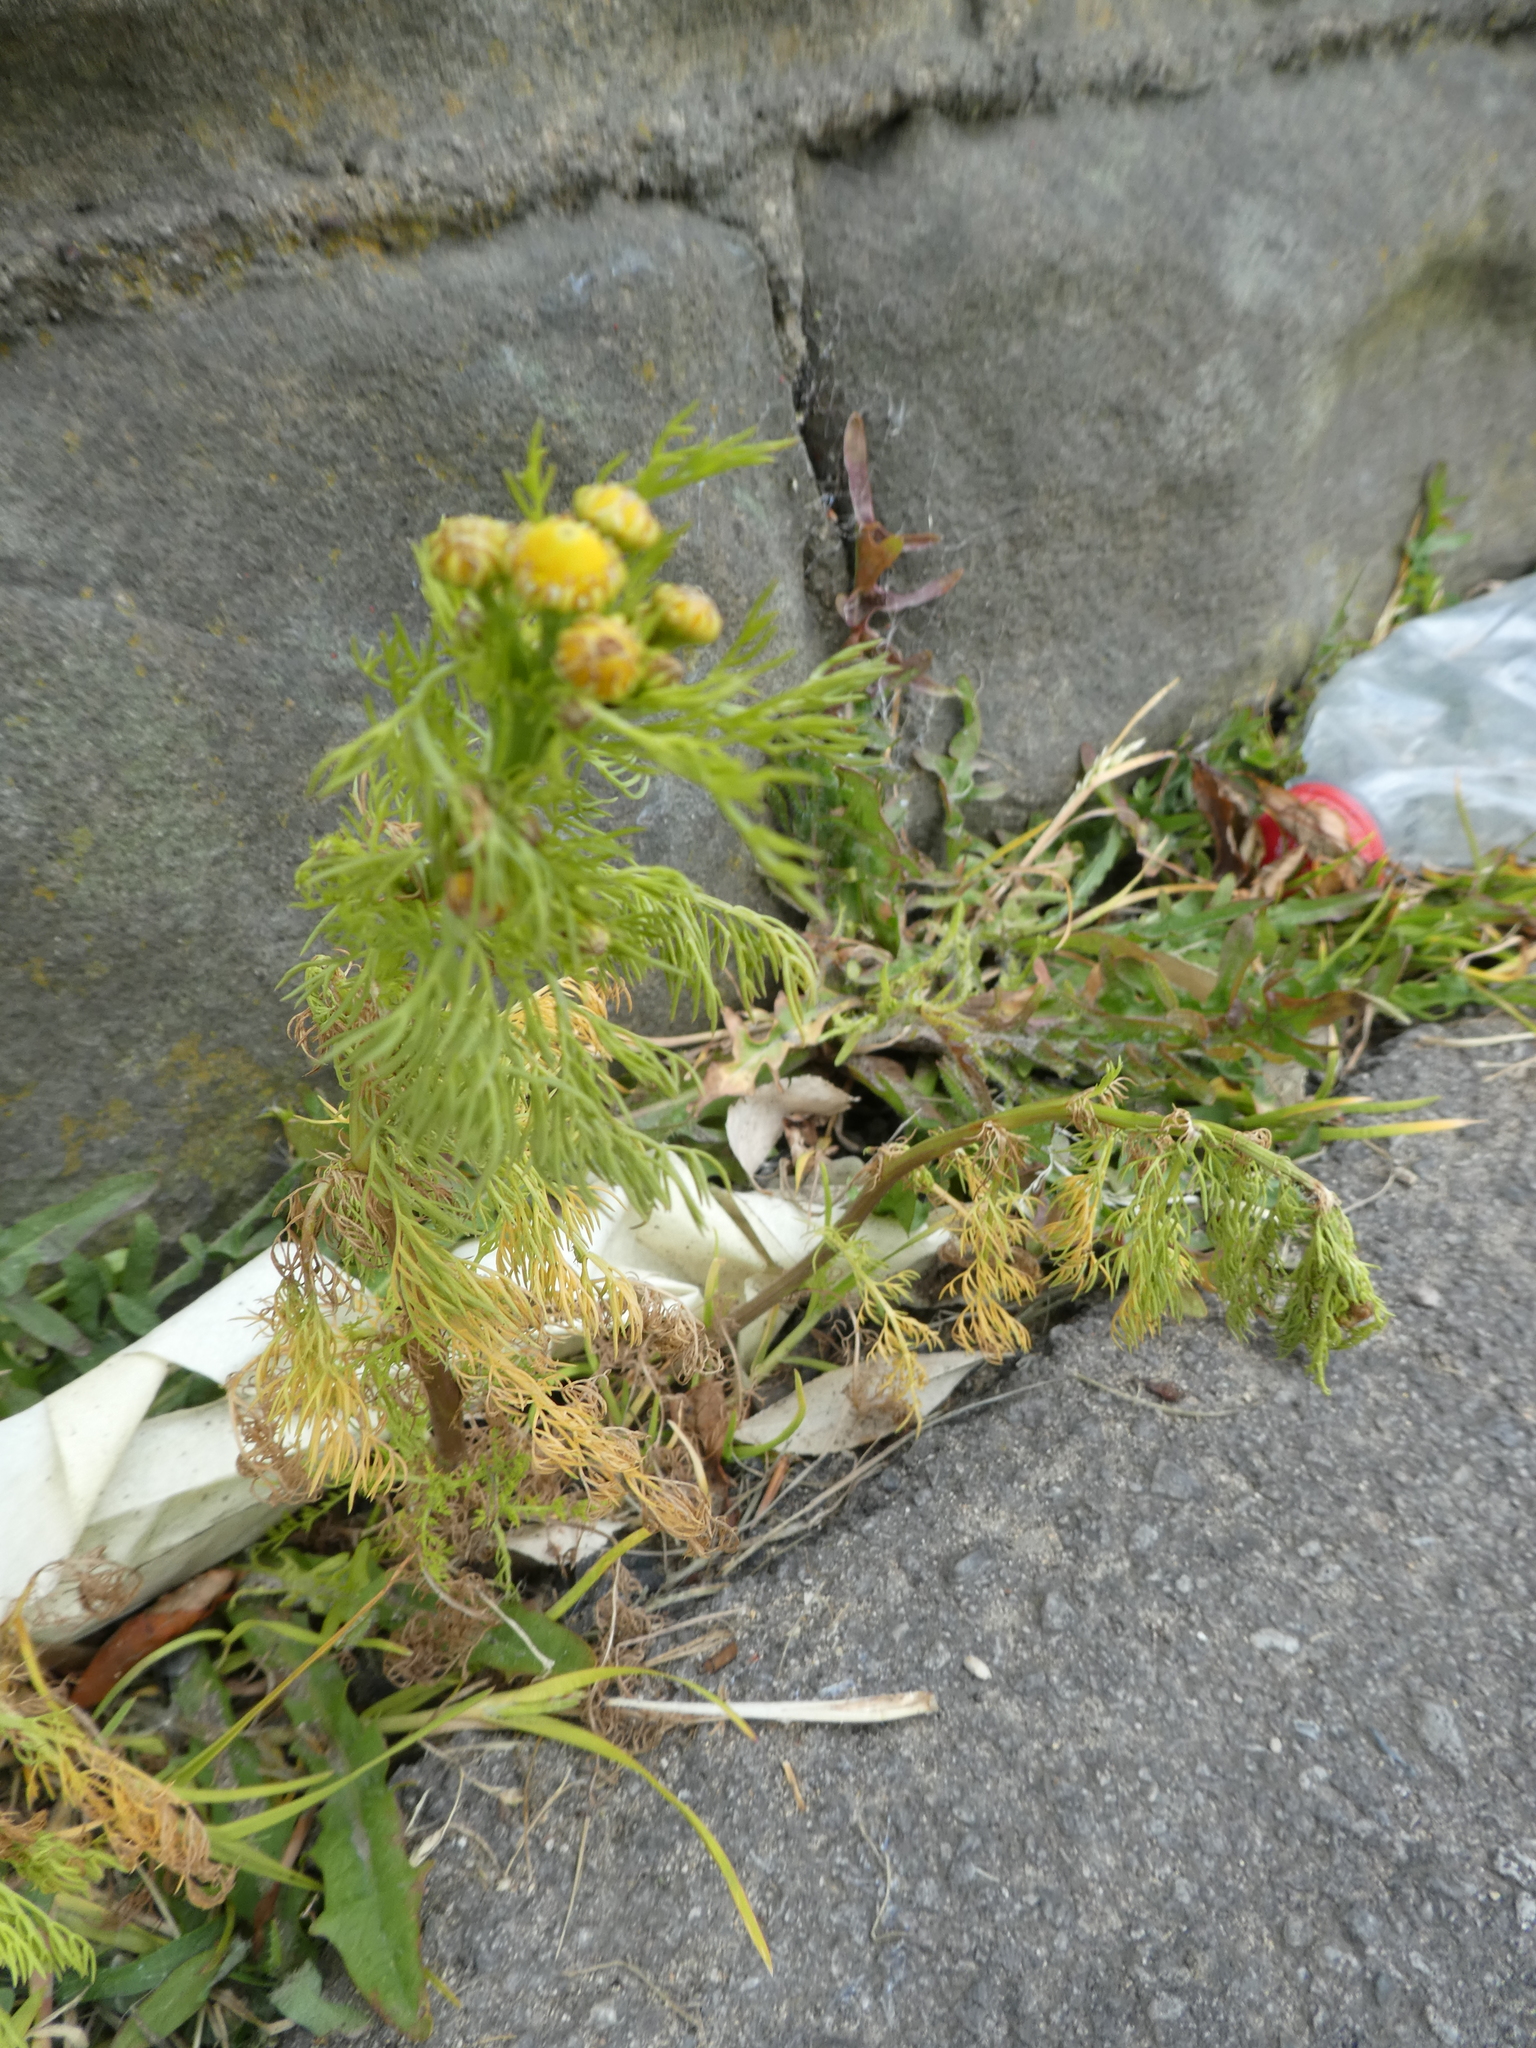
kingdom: Plantae
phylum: Tracheophyta
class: Magnoliopsida
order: Asterales
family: Asteraceae
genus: Matricaria
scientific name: Matricaria discoidea
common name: Disc mayweed
